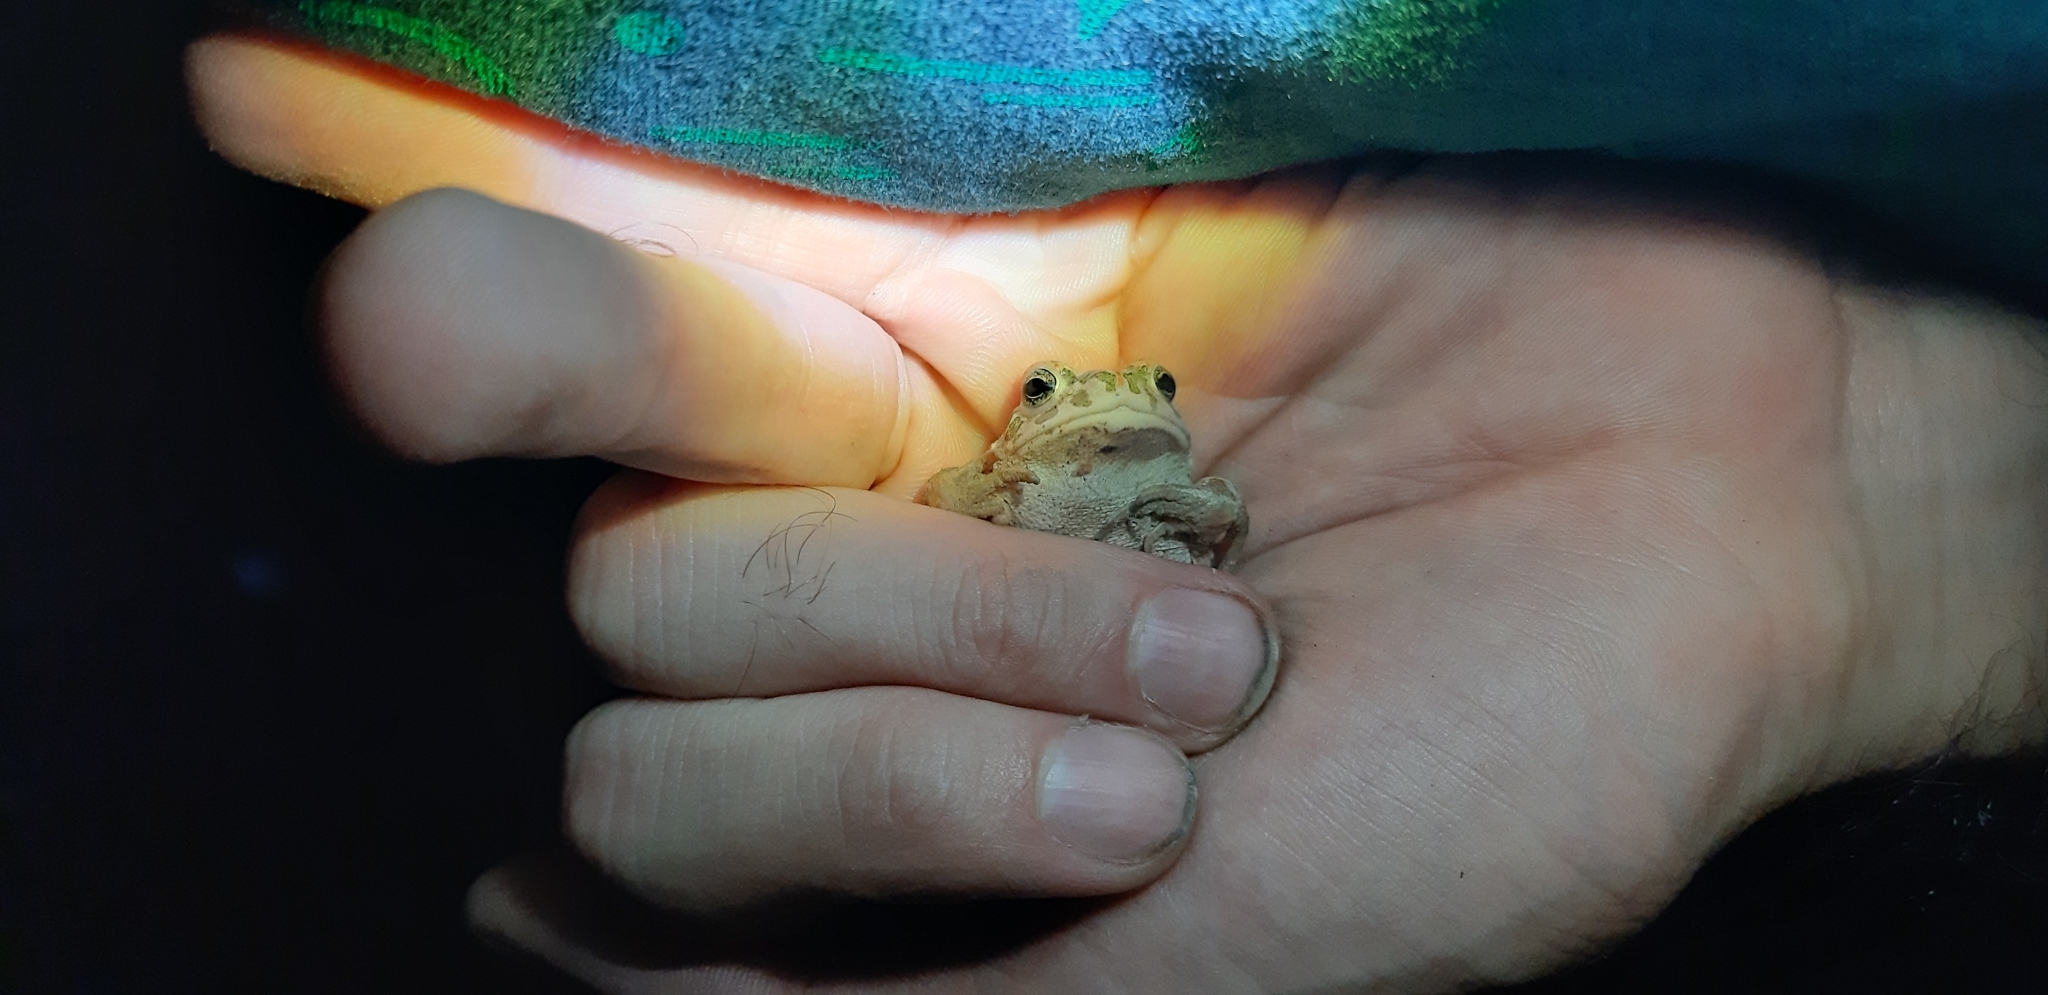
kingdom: Animalia
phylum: Chordata
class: Amphibia
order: Anura
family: Bufonidae
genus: Bufotes
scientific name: Bufotes viridis
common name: European green toad
